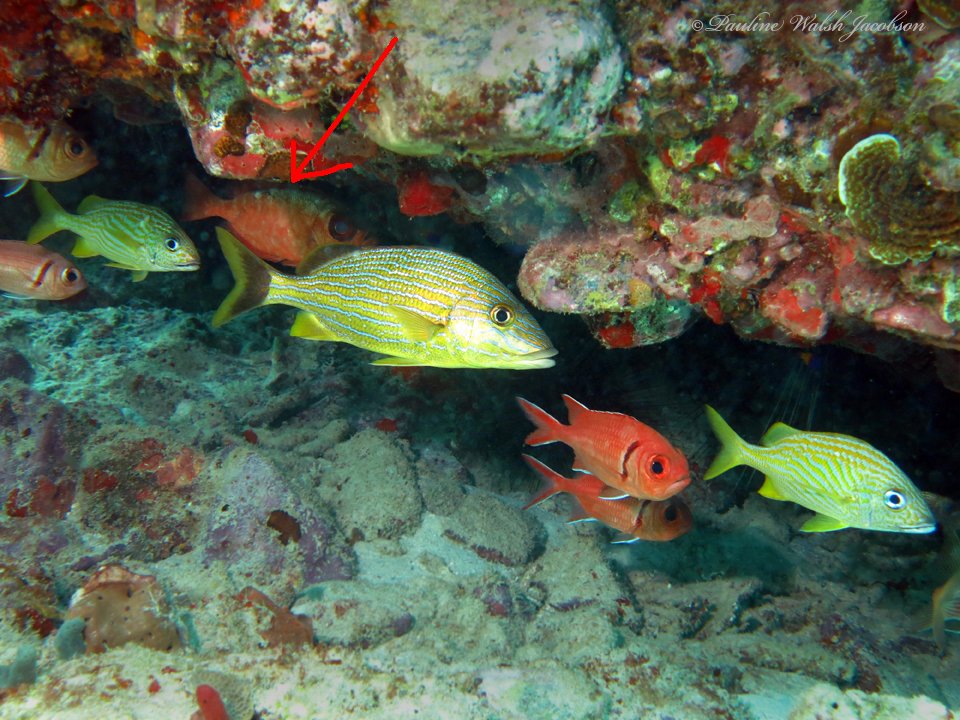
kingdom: Animalia
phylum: Chordata
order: Perciformes
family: Priacanthidae
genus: Heteropriacanthus
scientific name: Heteropriacanthus cruentatus
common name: Glasseye
